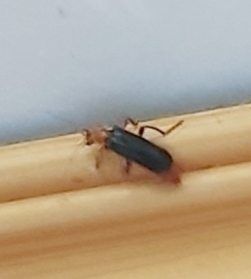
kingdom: Animalia
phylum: Arthropoda
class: Insecta
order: Coleoptera
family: Cantharidae
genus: Cantharis
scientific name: Cantharis livida
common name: Livid soldier beetle
